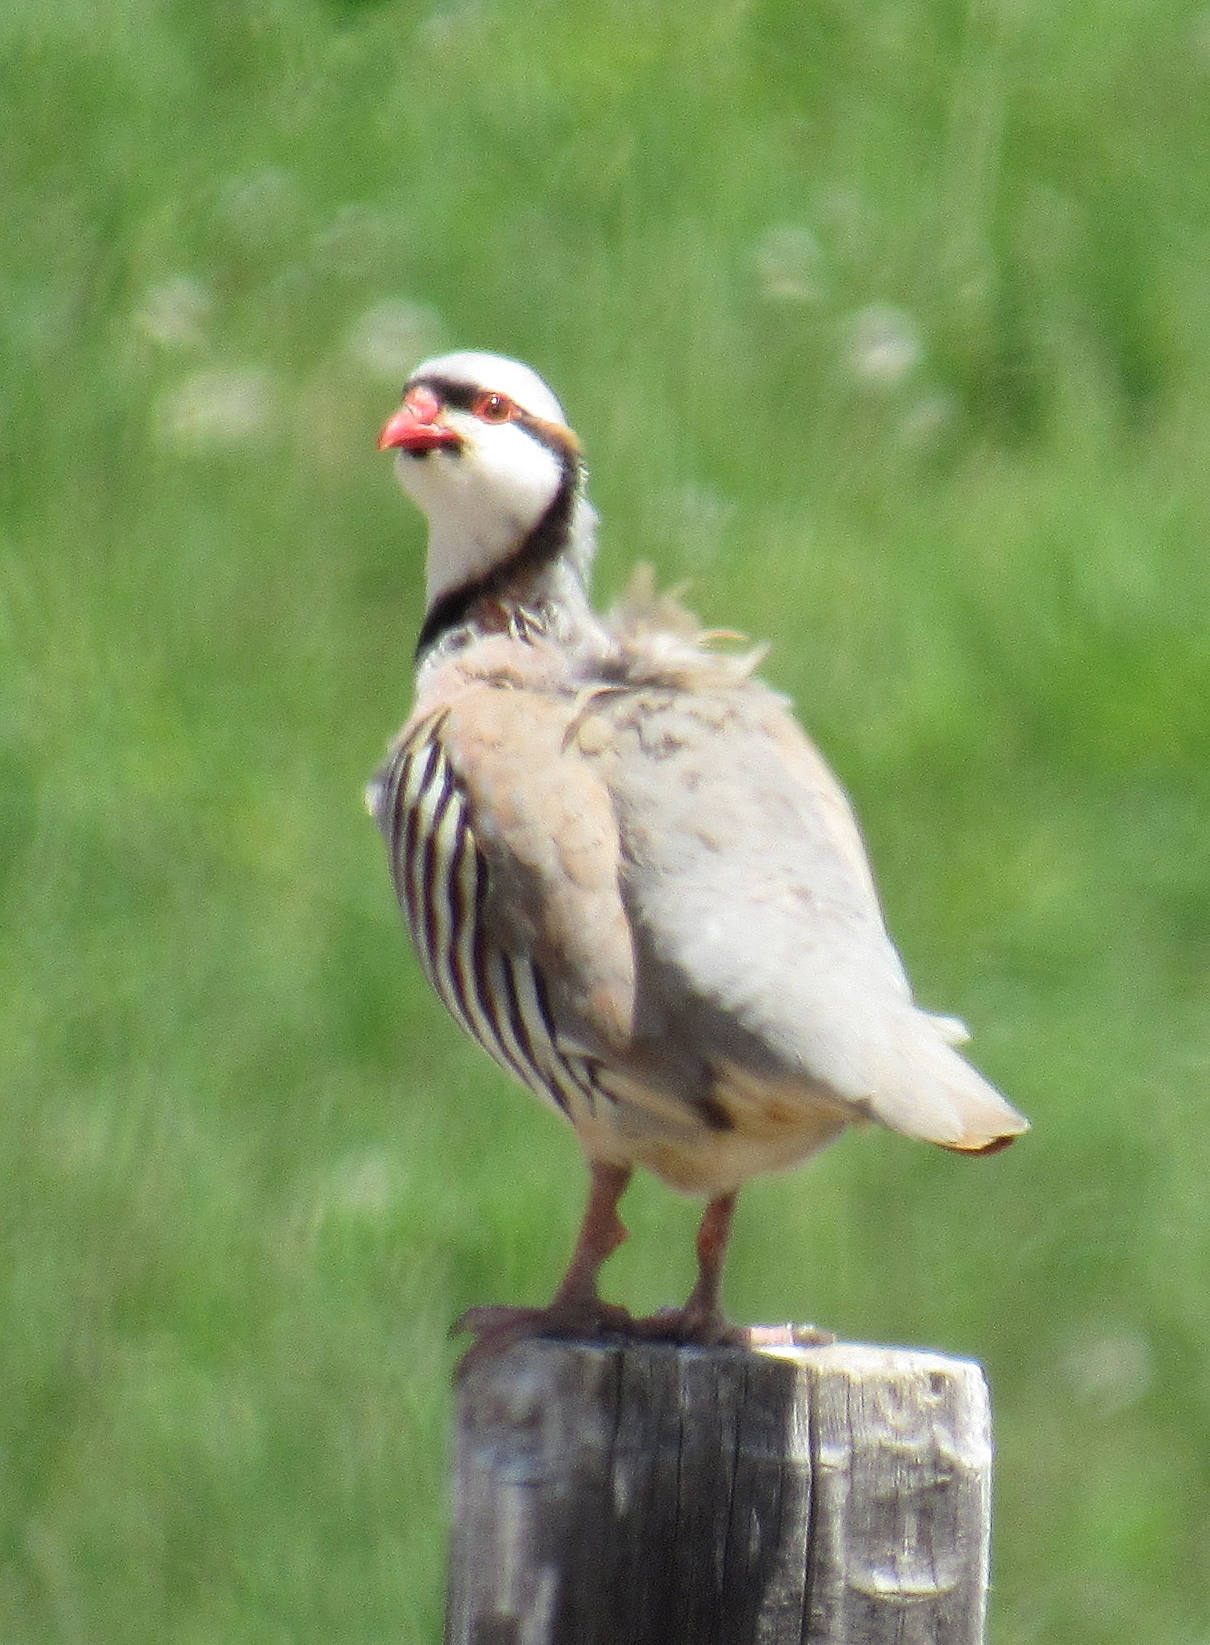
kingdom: Animalia
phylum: Chordata
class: Aves
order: Galliformes
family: Phasianidae
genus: Alectoris
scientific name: Alectoris chukar
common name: Chukar
